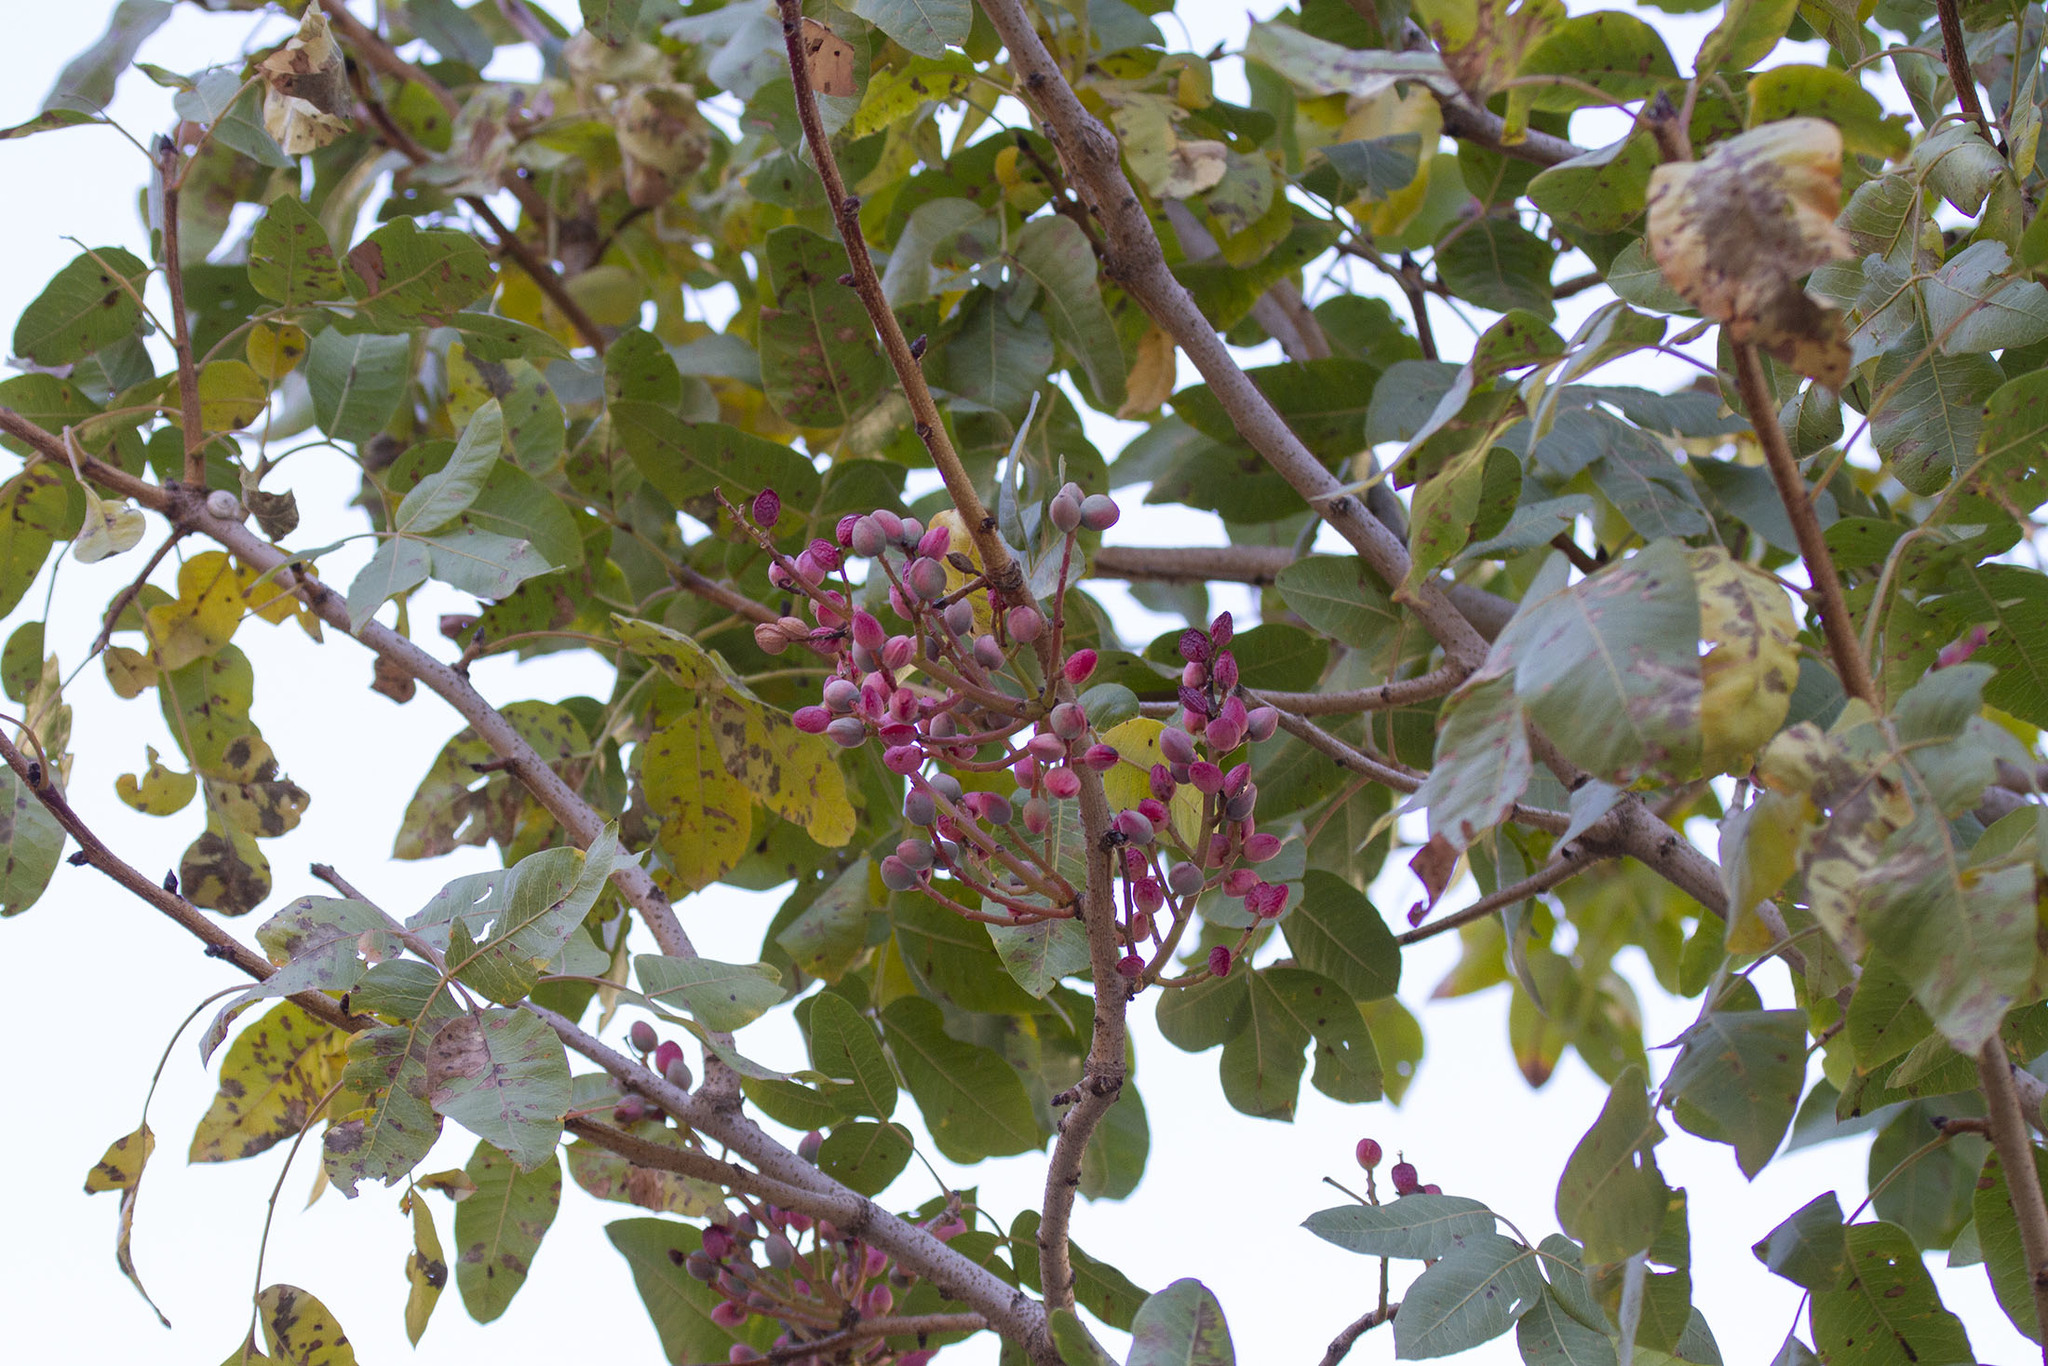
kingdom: Plantae
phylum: Tracheophyta
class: Magnoliopsida
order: Sapindales
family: Anacardiaceae
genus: Pistacia
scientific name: Pistacia terebinthus
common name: Terebinth
